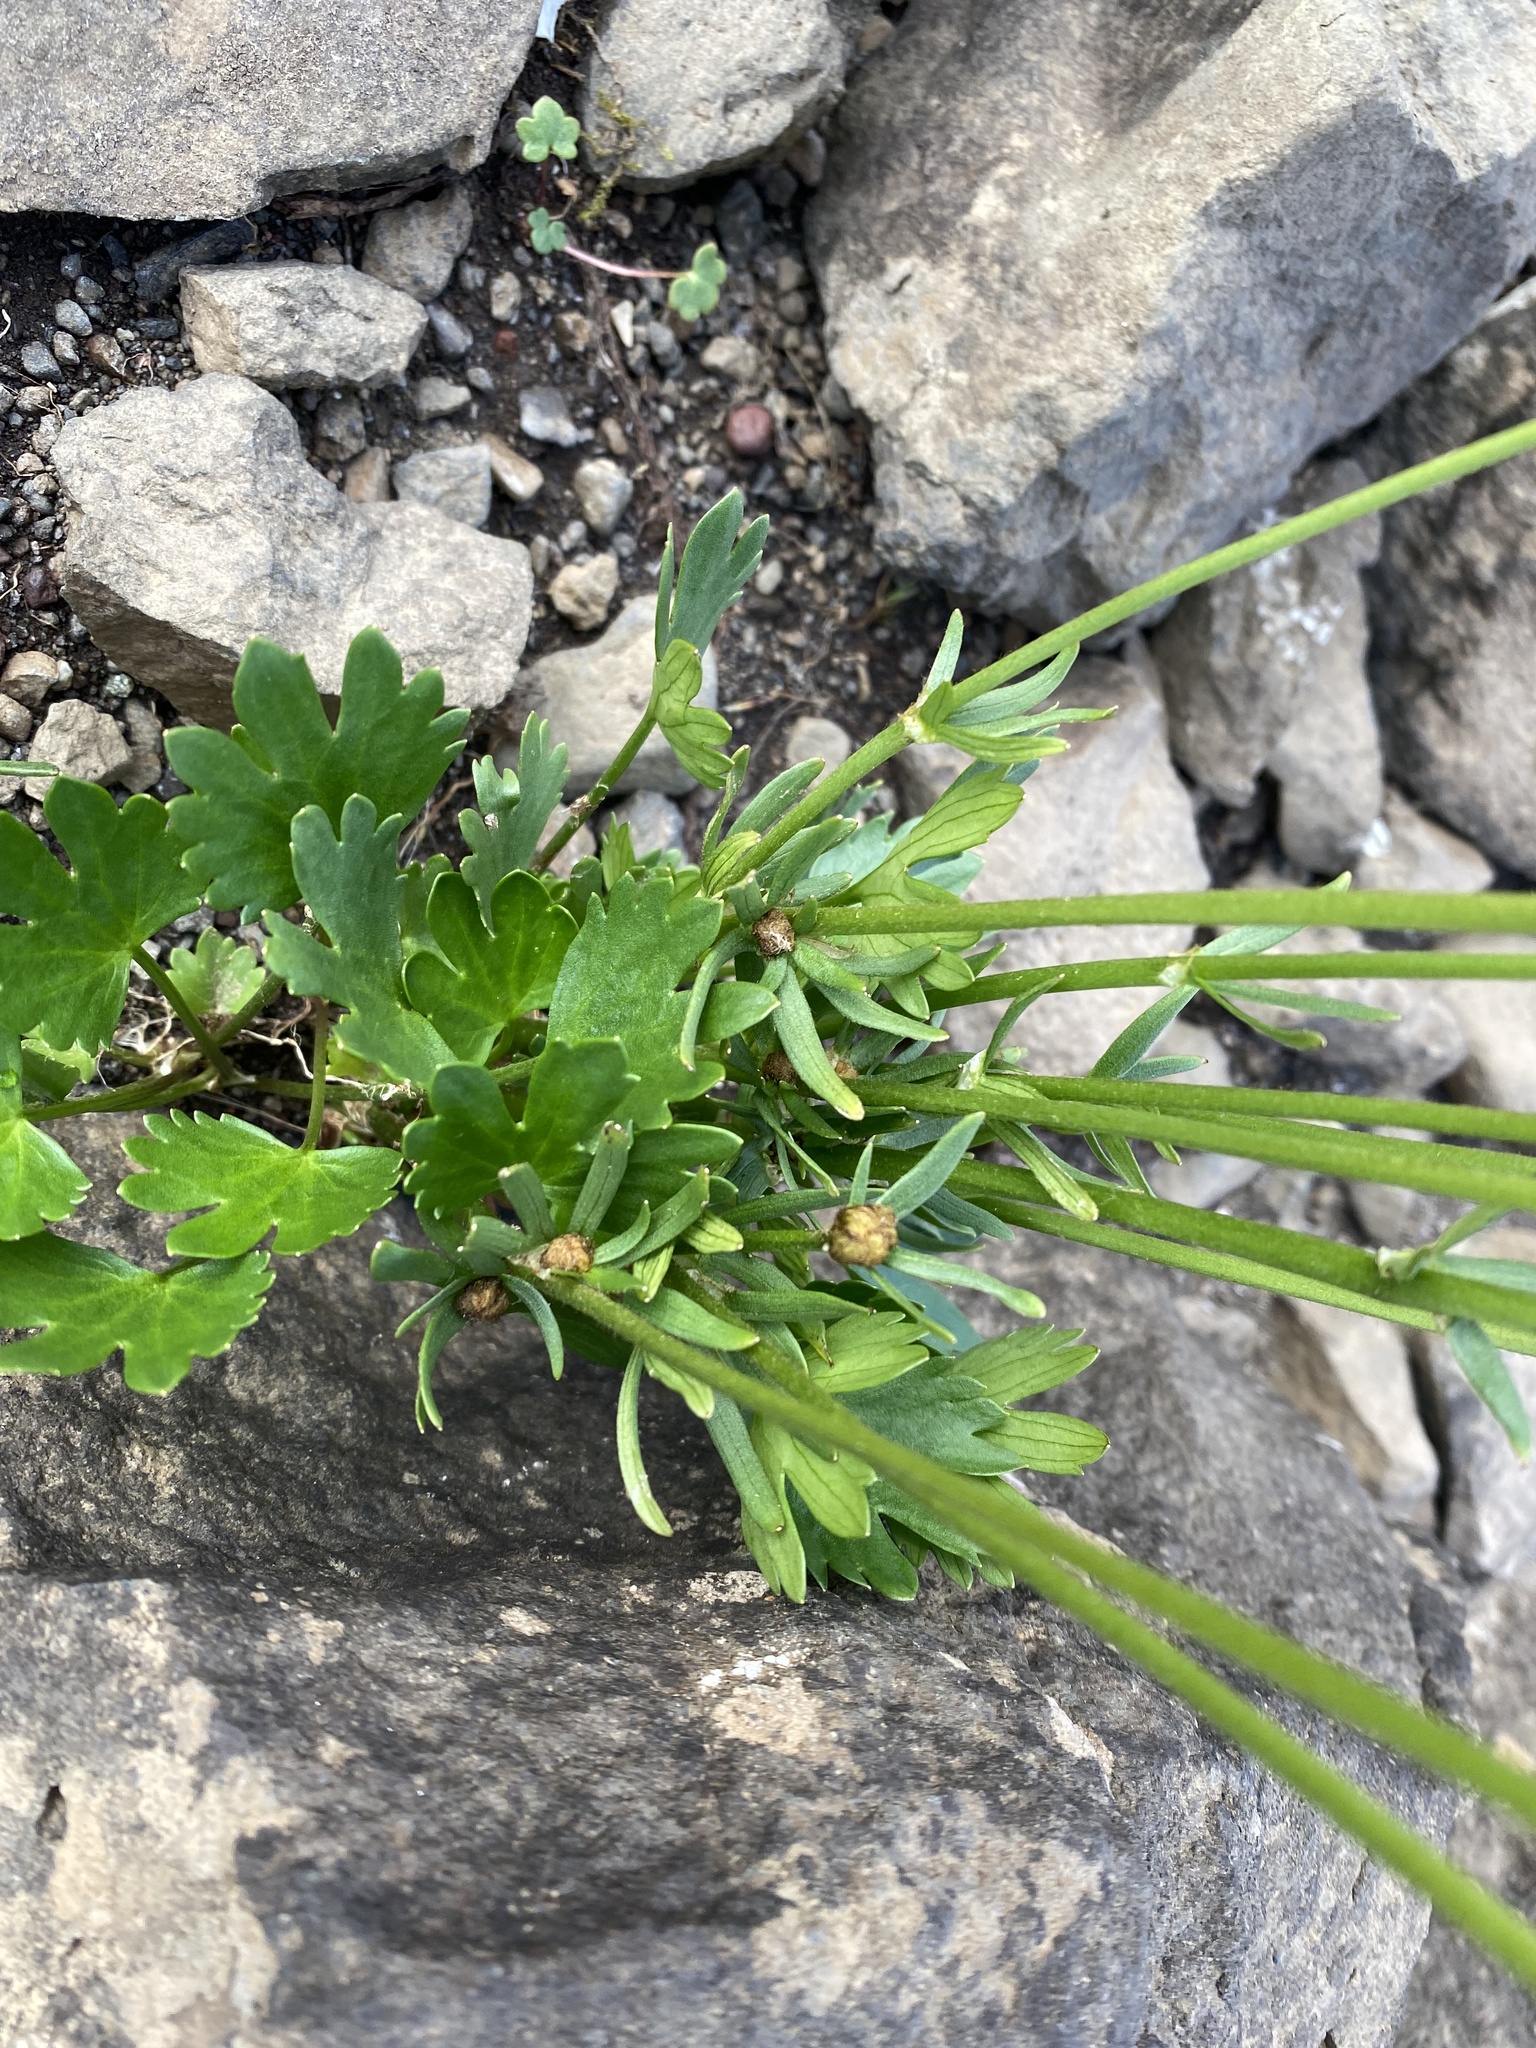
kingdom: Plantae
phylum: Tracheophyta
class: Magnoliopsida
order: Ranunculales
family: Ranunculaceae
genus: Ranunculus
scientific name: Ranunculus sulphureus
